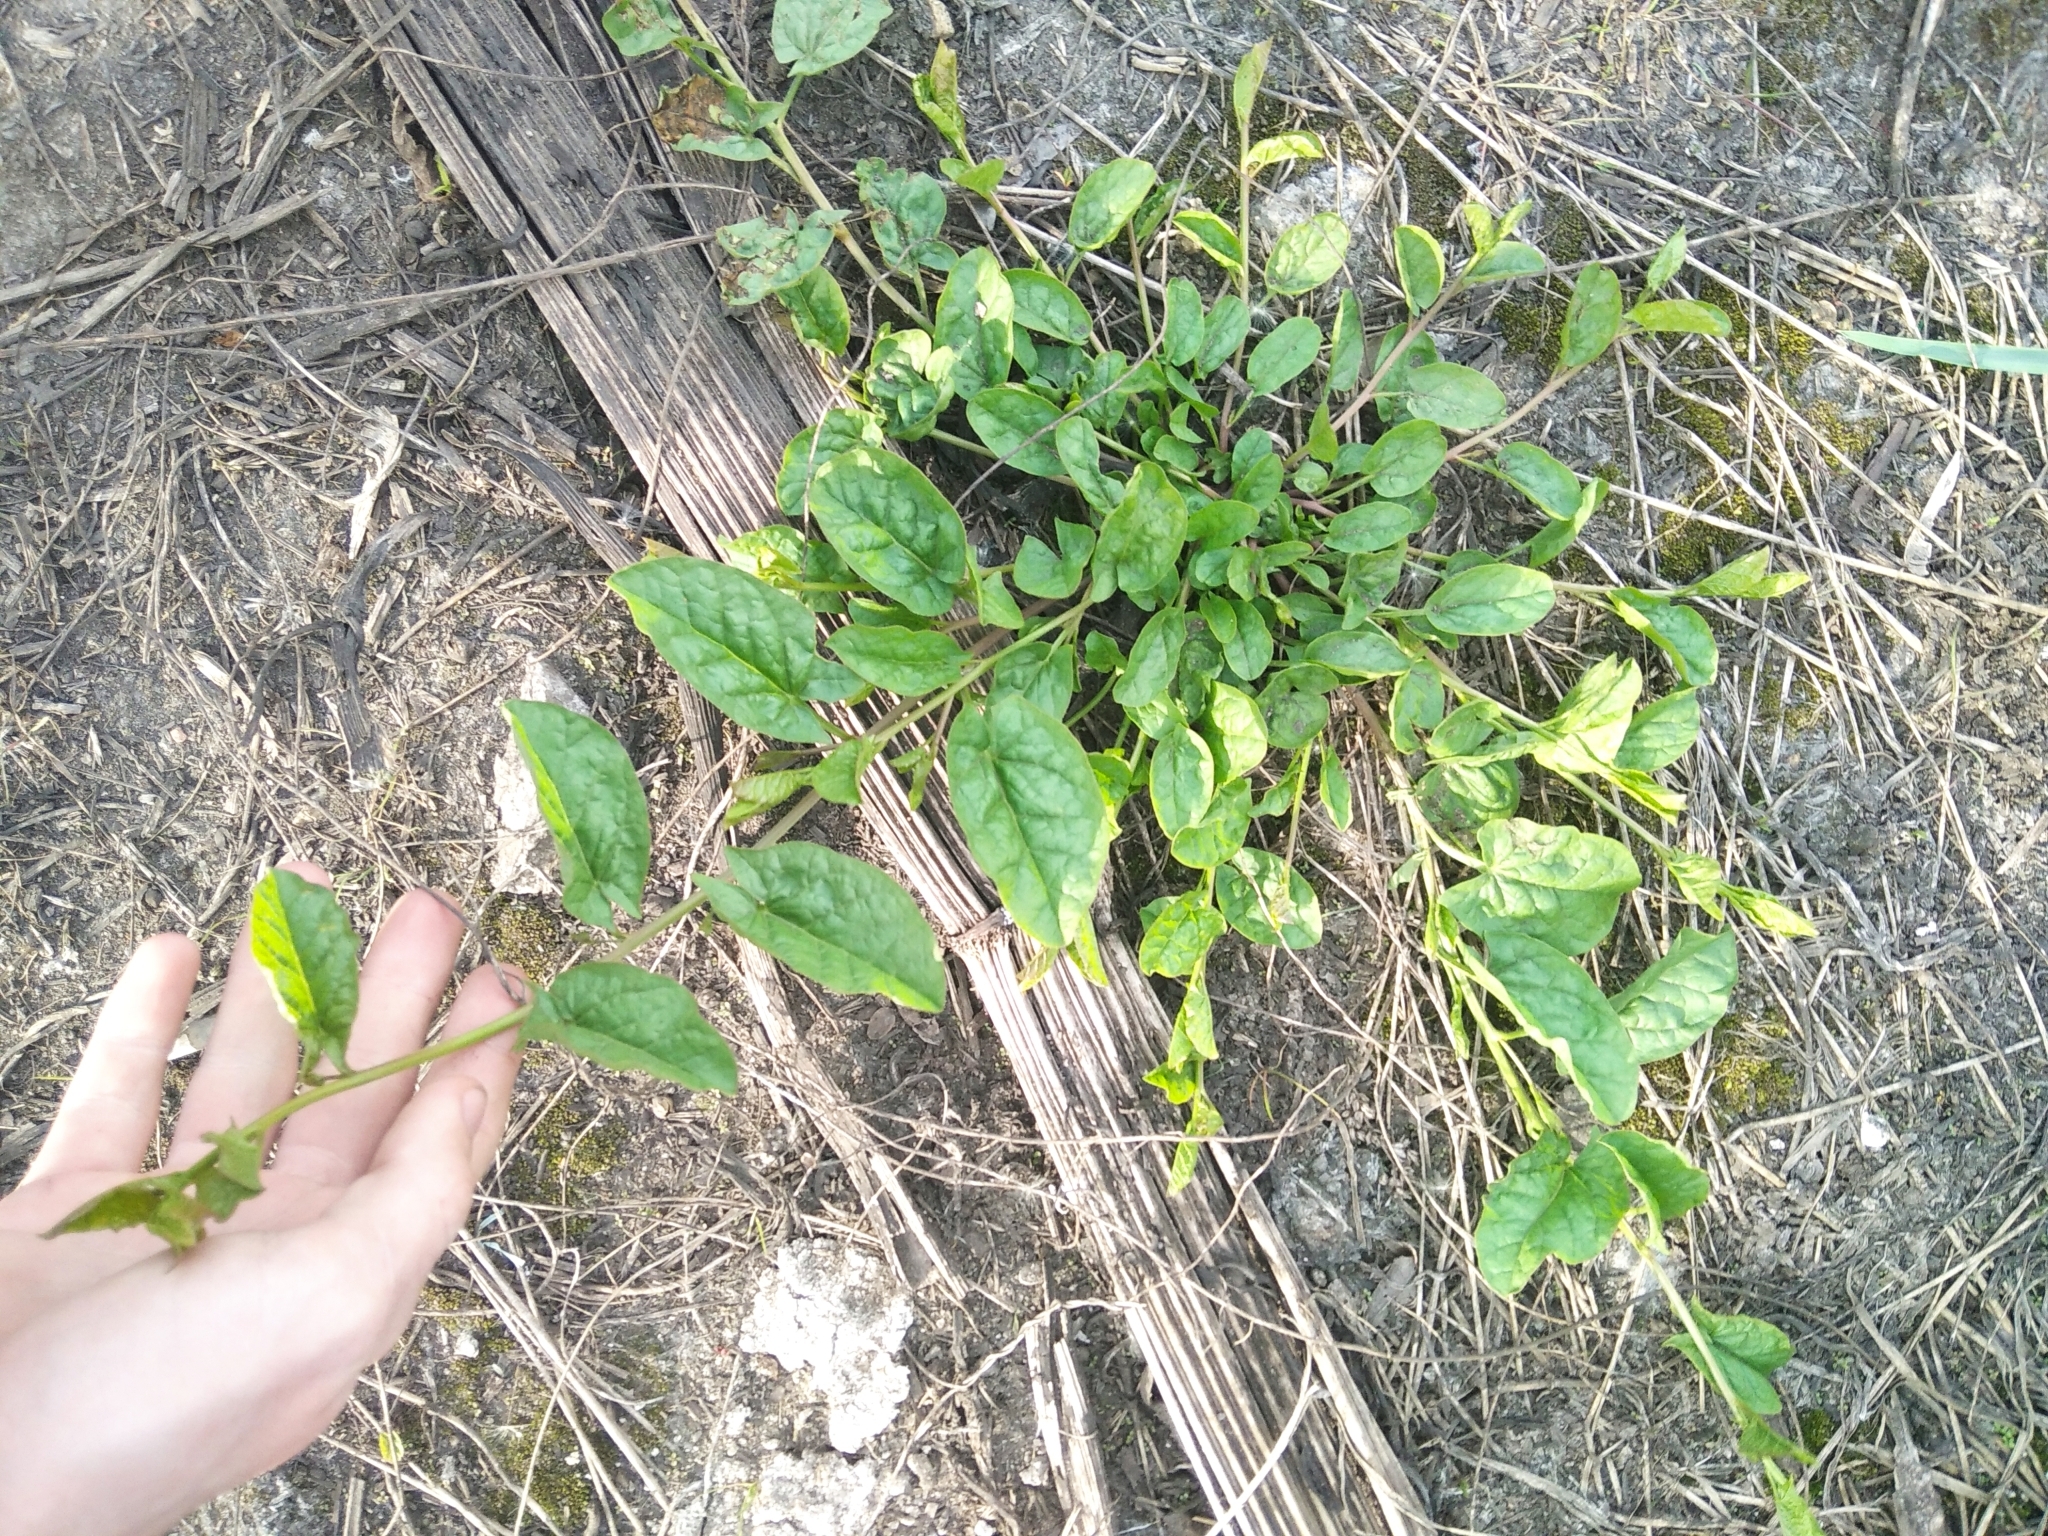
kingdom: Plantae
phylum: Tracheophyta
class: Magnoliopsida
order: Solanales
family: Convolvulaceae
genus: Convolvulus
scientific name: Convolvulus arvensis
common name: Field bindweed
